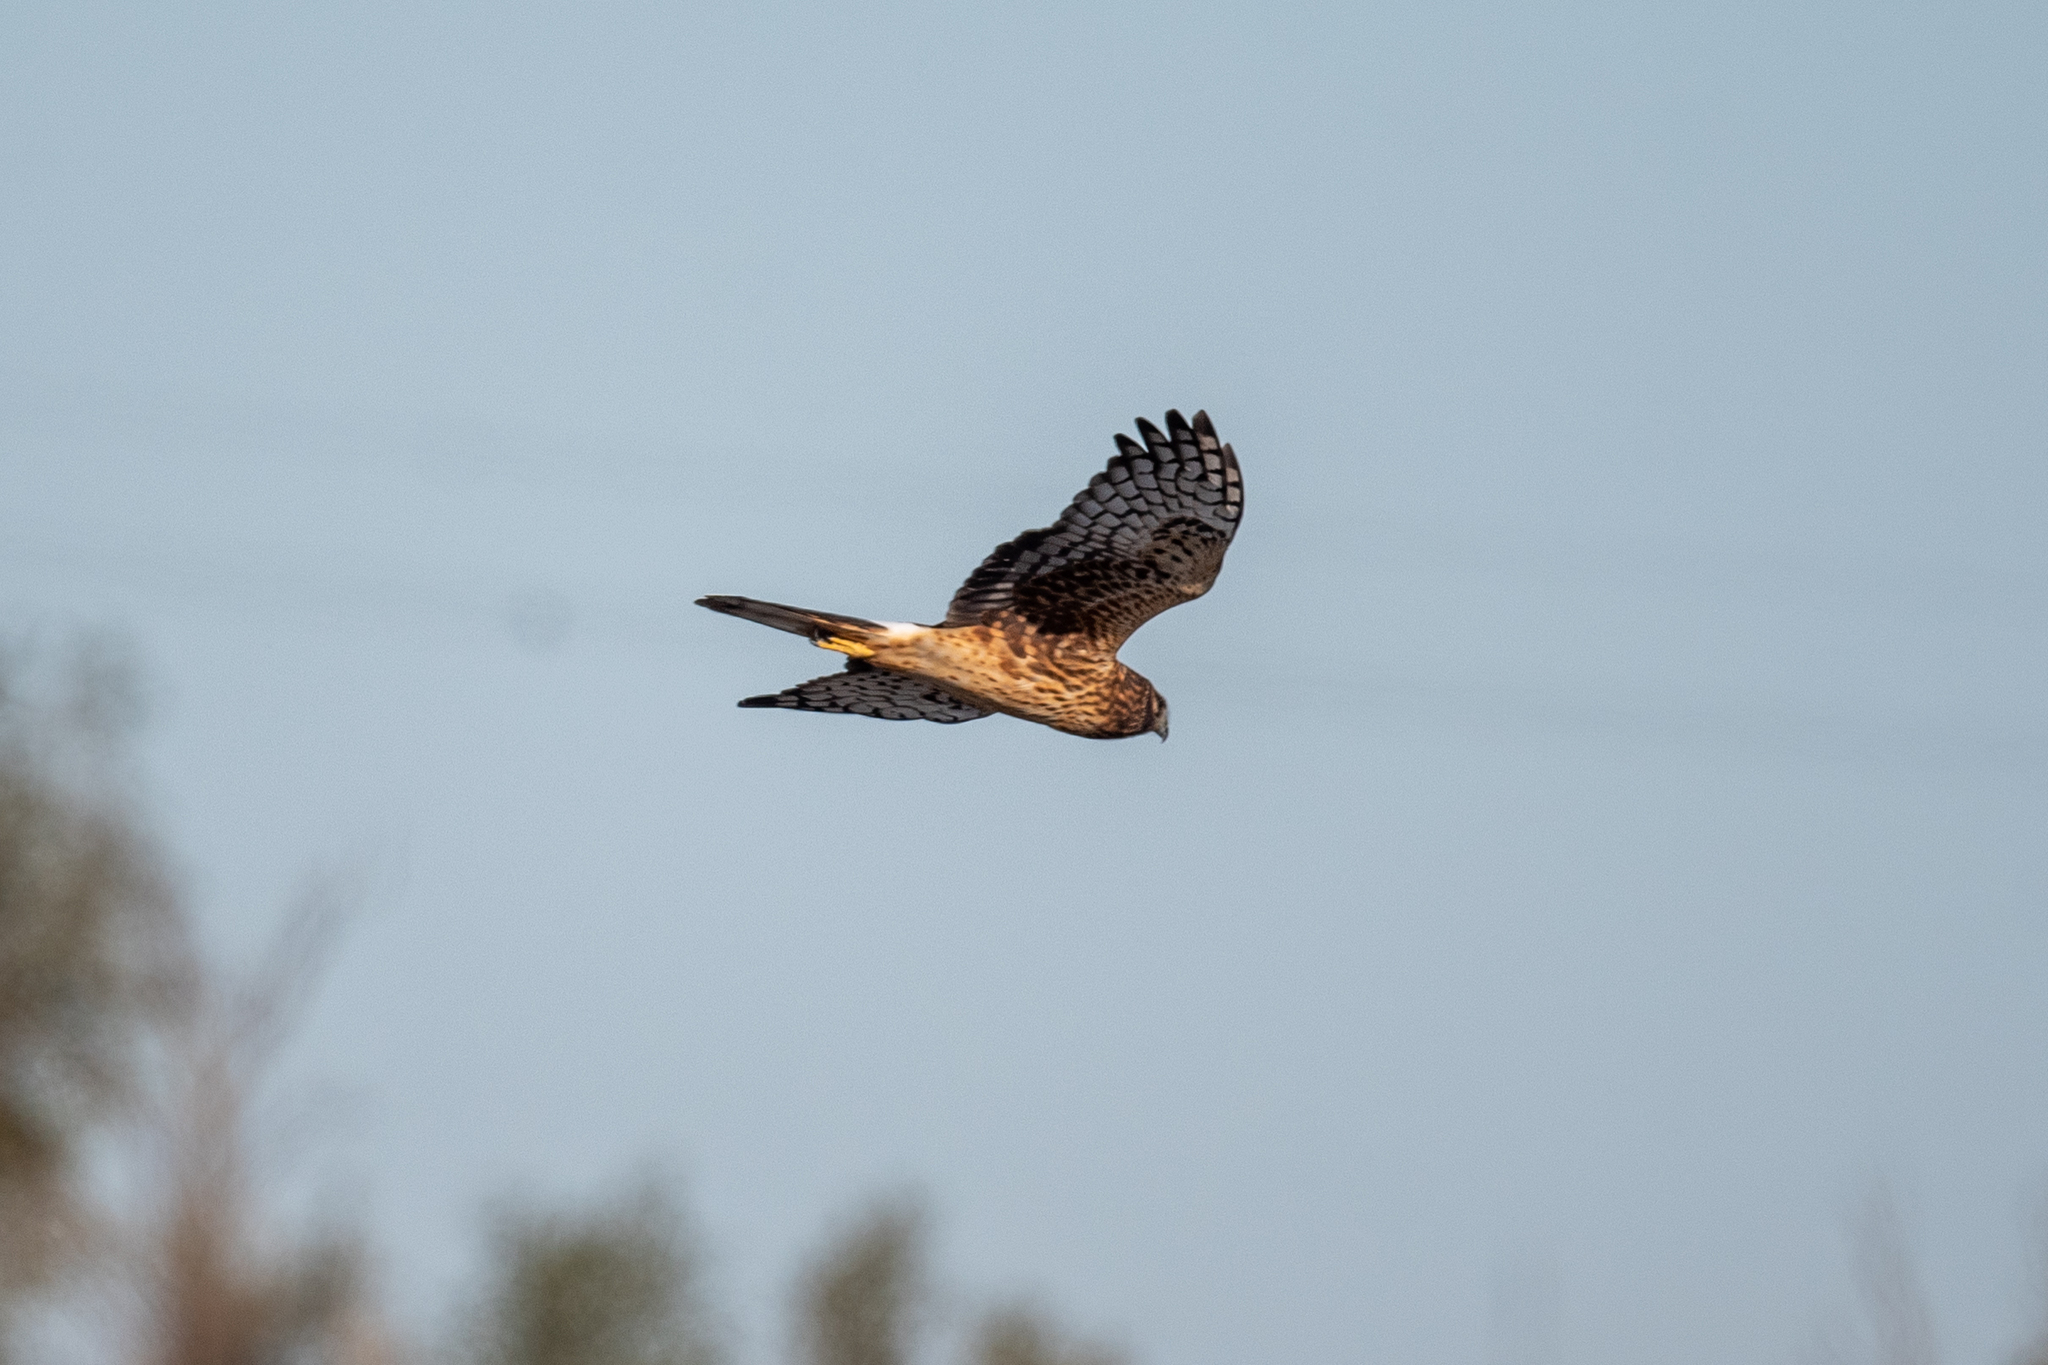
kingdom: Animalia
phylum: Chordata
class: Aves
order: Accipitriformes
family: Accipitridae
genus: Circus
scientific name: Circus cyaneus
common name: Hen harrier
